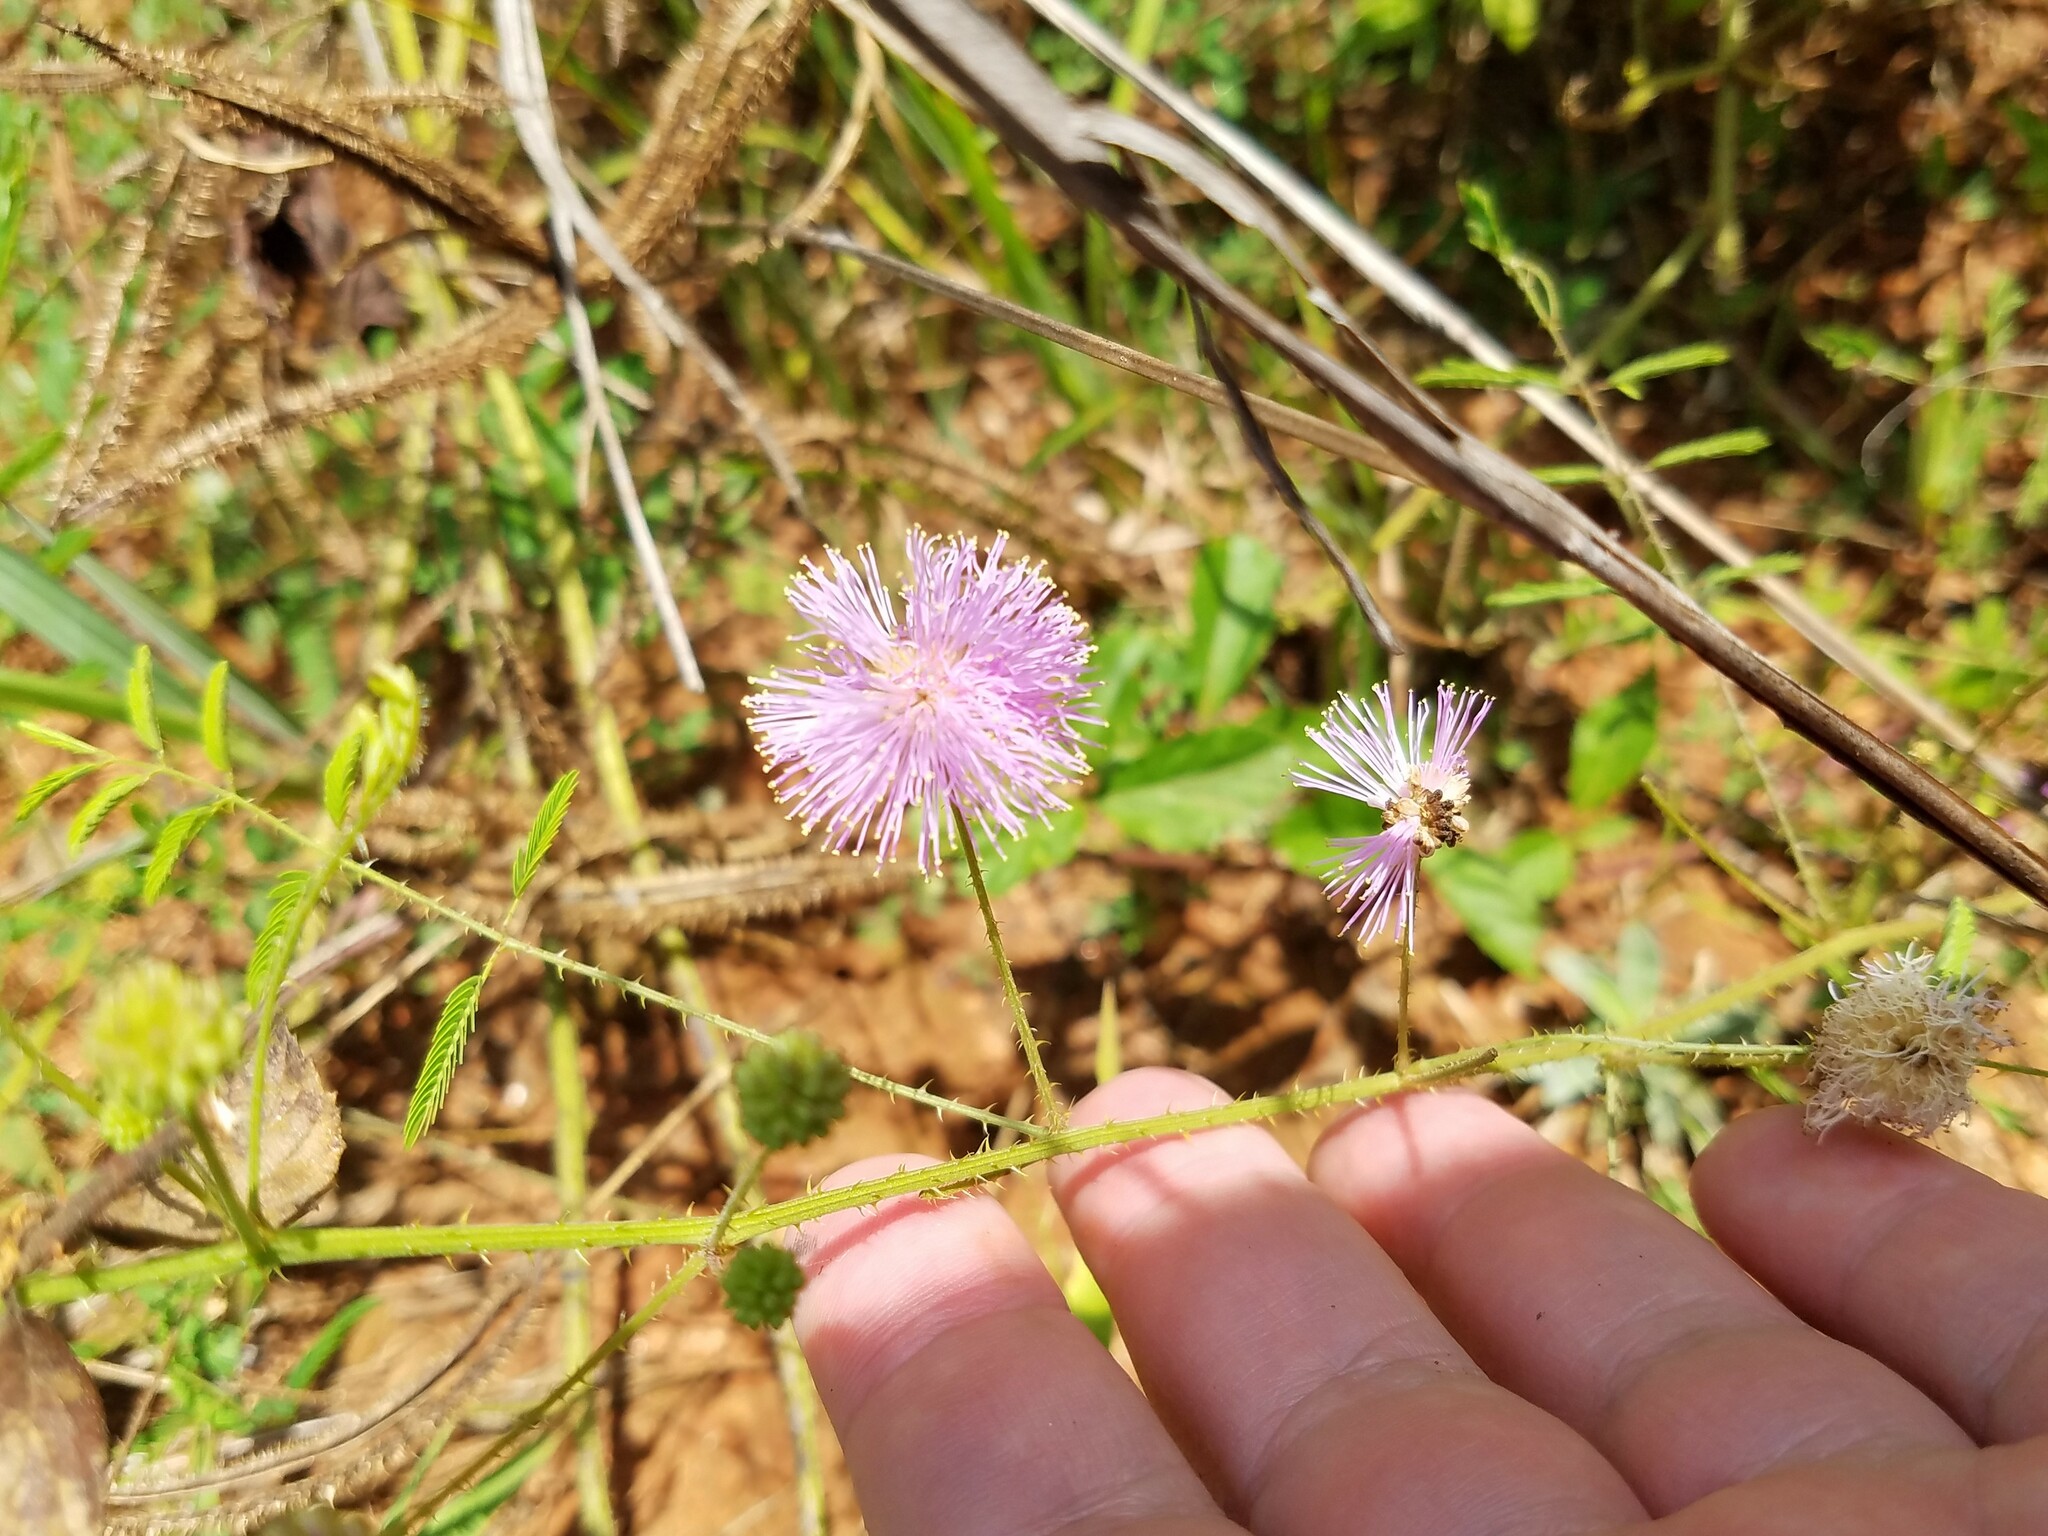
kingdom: Plantae
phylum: Tracheophyta
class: Magnoliopsida
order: Fabales
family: Fabaceae
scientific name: Fabaceae
